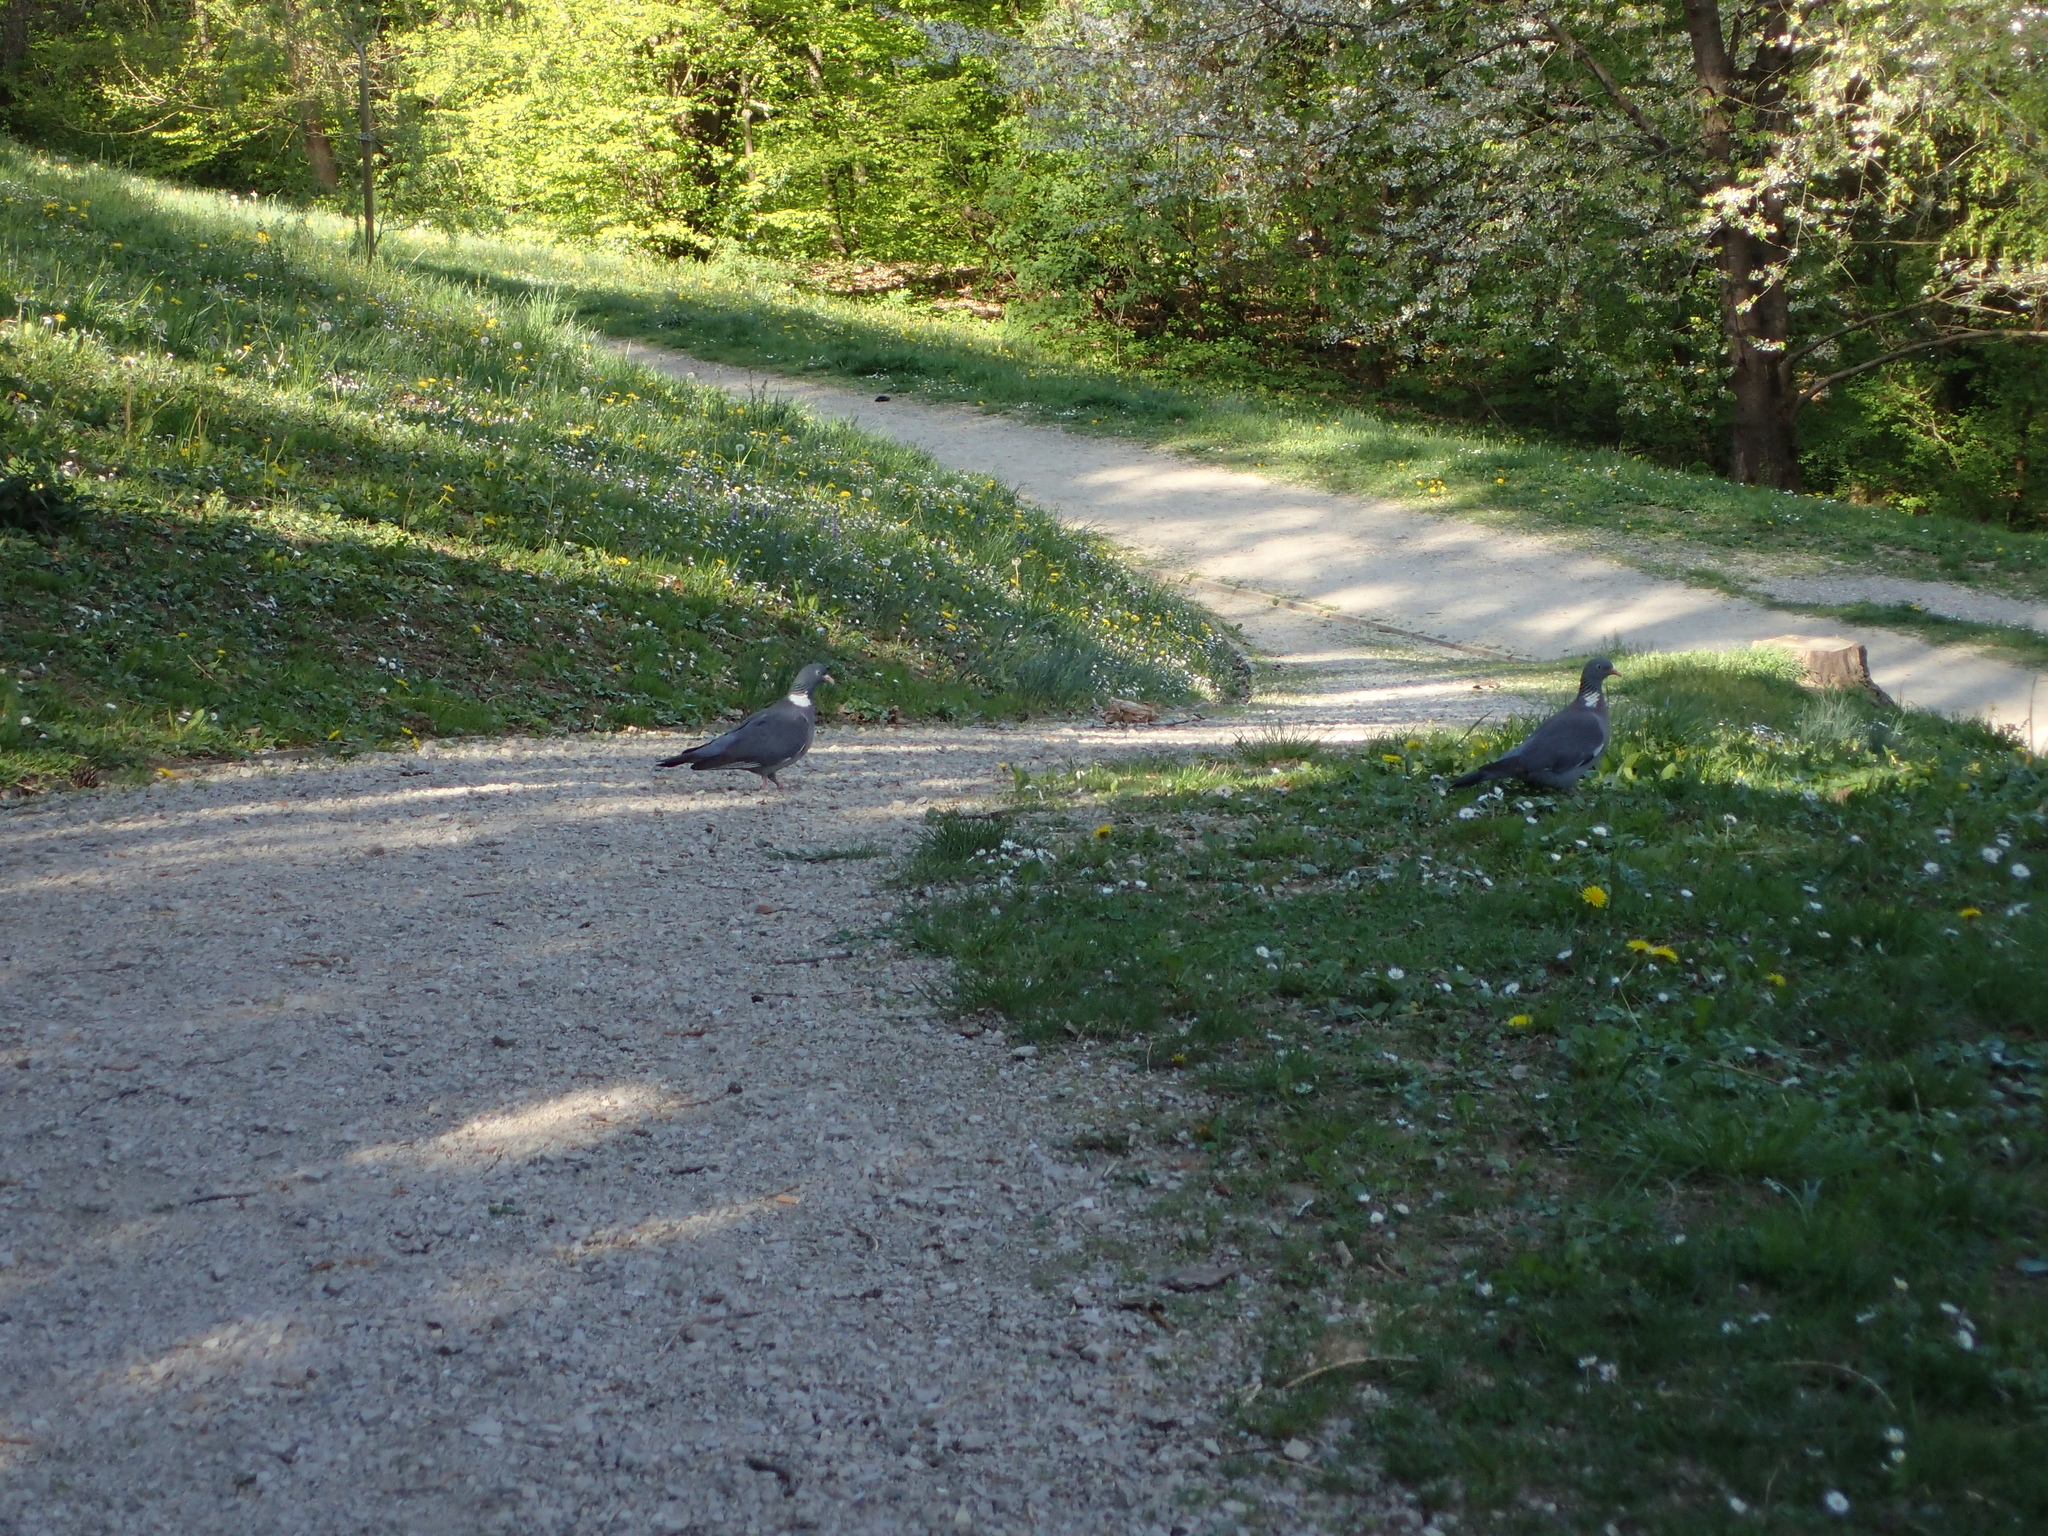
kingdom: Animalia
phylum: Chordata
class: Aves
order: Columbiformes
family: Columbidae
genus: Columba
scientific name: Columba palumbus
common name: Common wood pigeon
